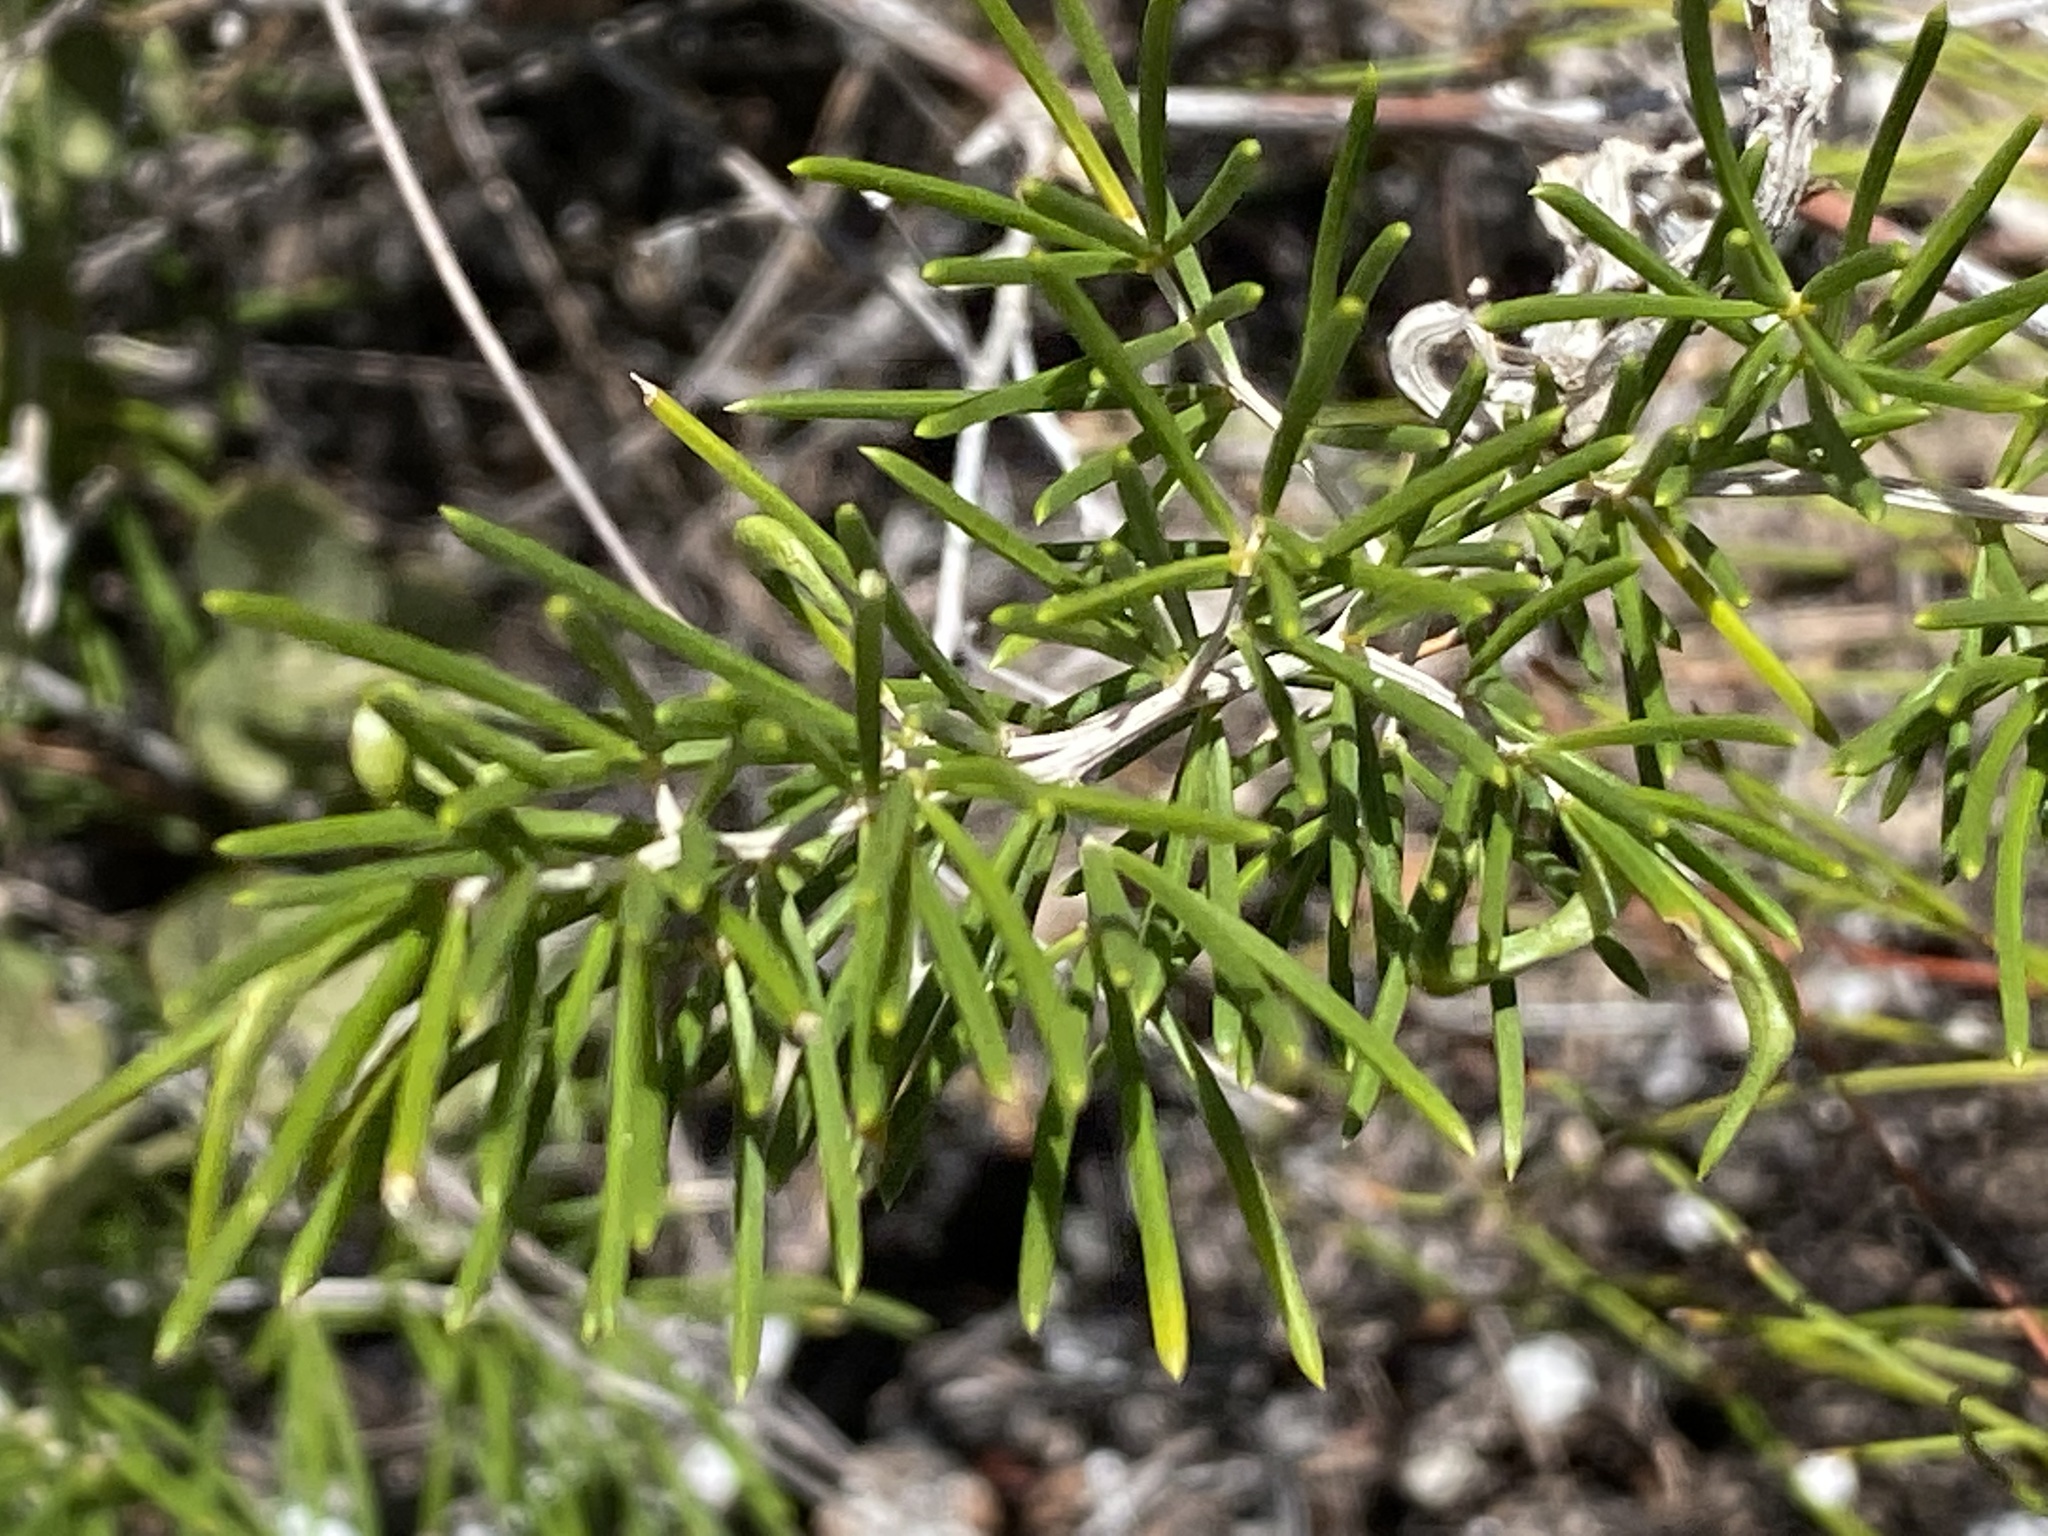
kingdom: Plantae
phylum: Tracheophyta
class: Liliopsida
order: Asparagales
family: Asparagaceae
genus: Asparagus
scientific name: Asparagus lignosus
